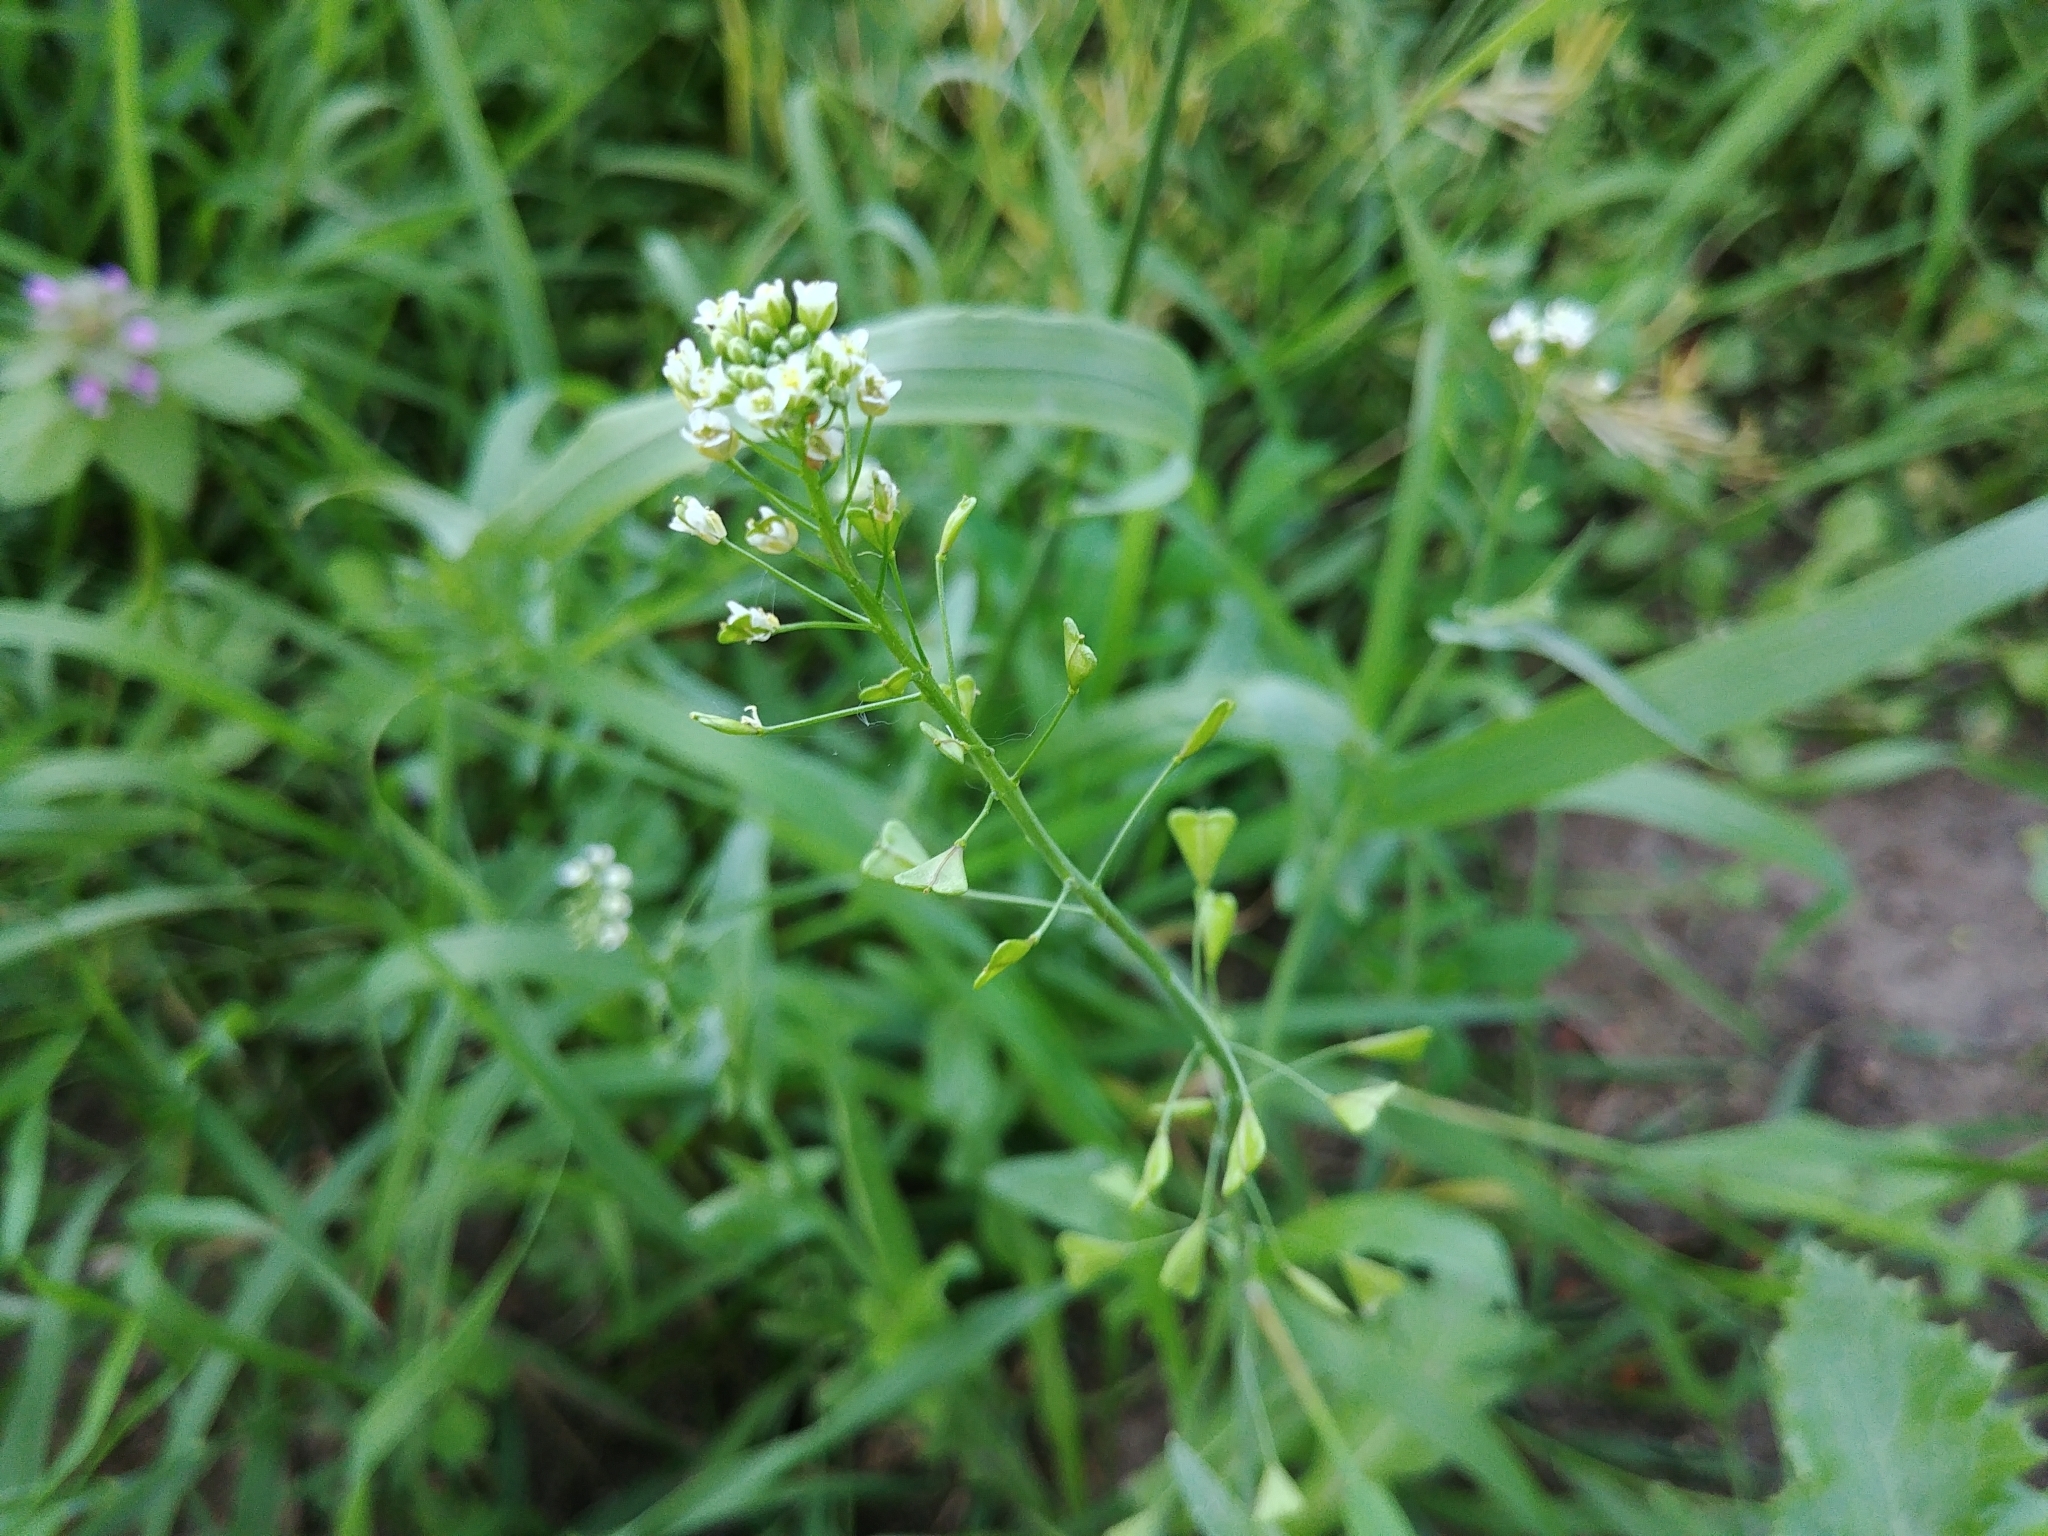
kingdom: Plantae
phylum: Tracheophyta
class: Magnoliopsida
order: Brassicales
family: Brassicaceae
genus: Capsella
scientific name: Capsella bursa-pastoris
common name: Shepherd's purse
